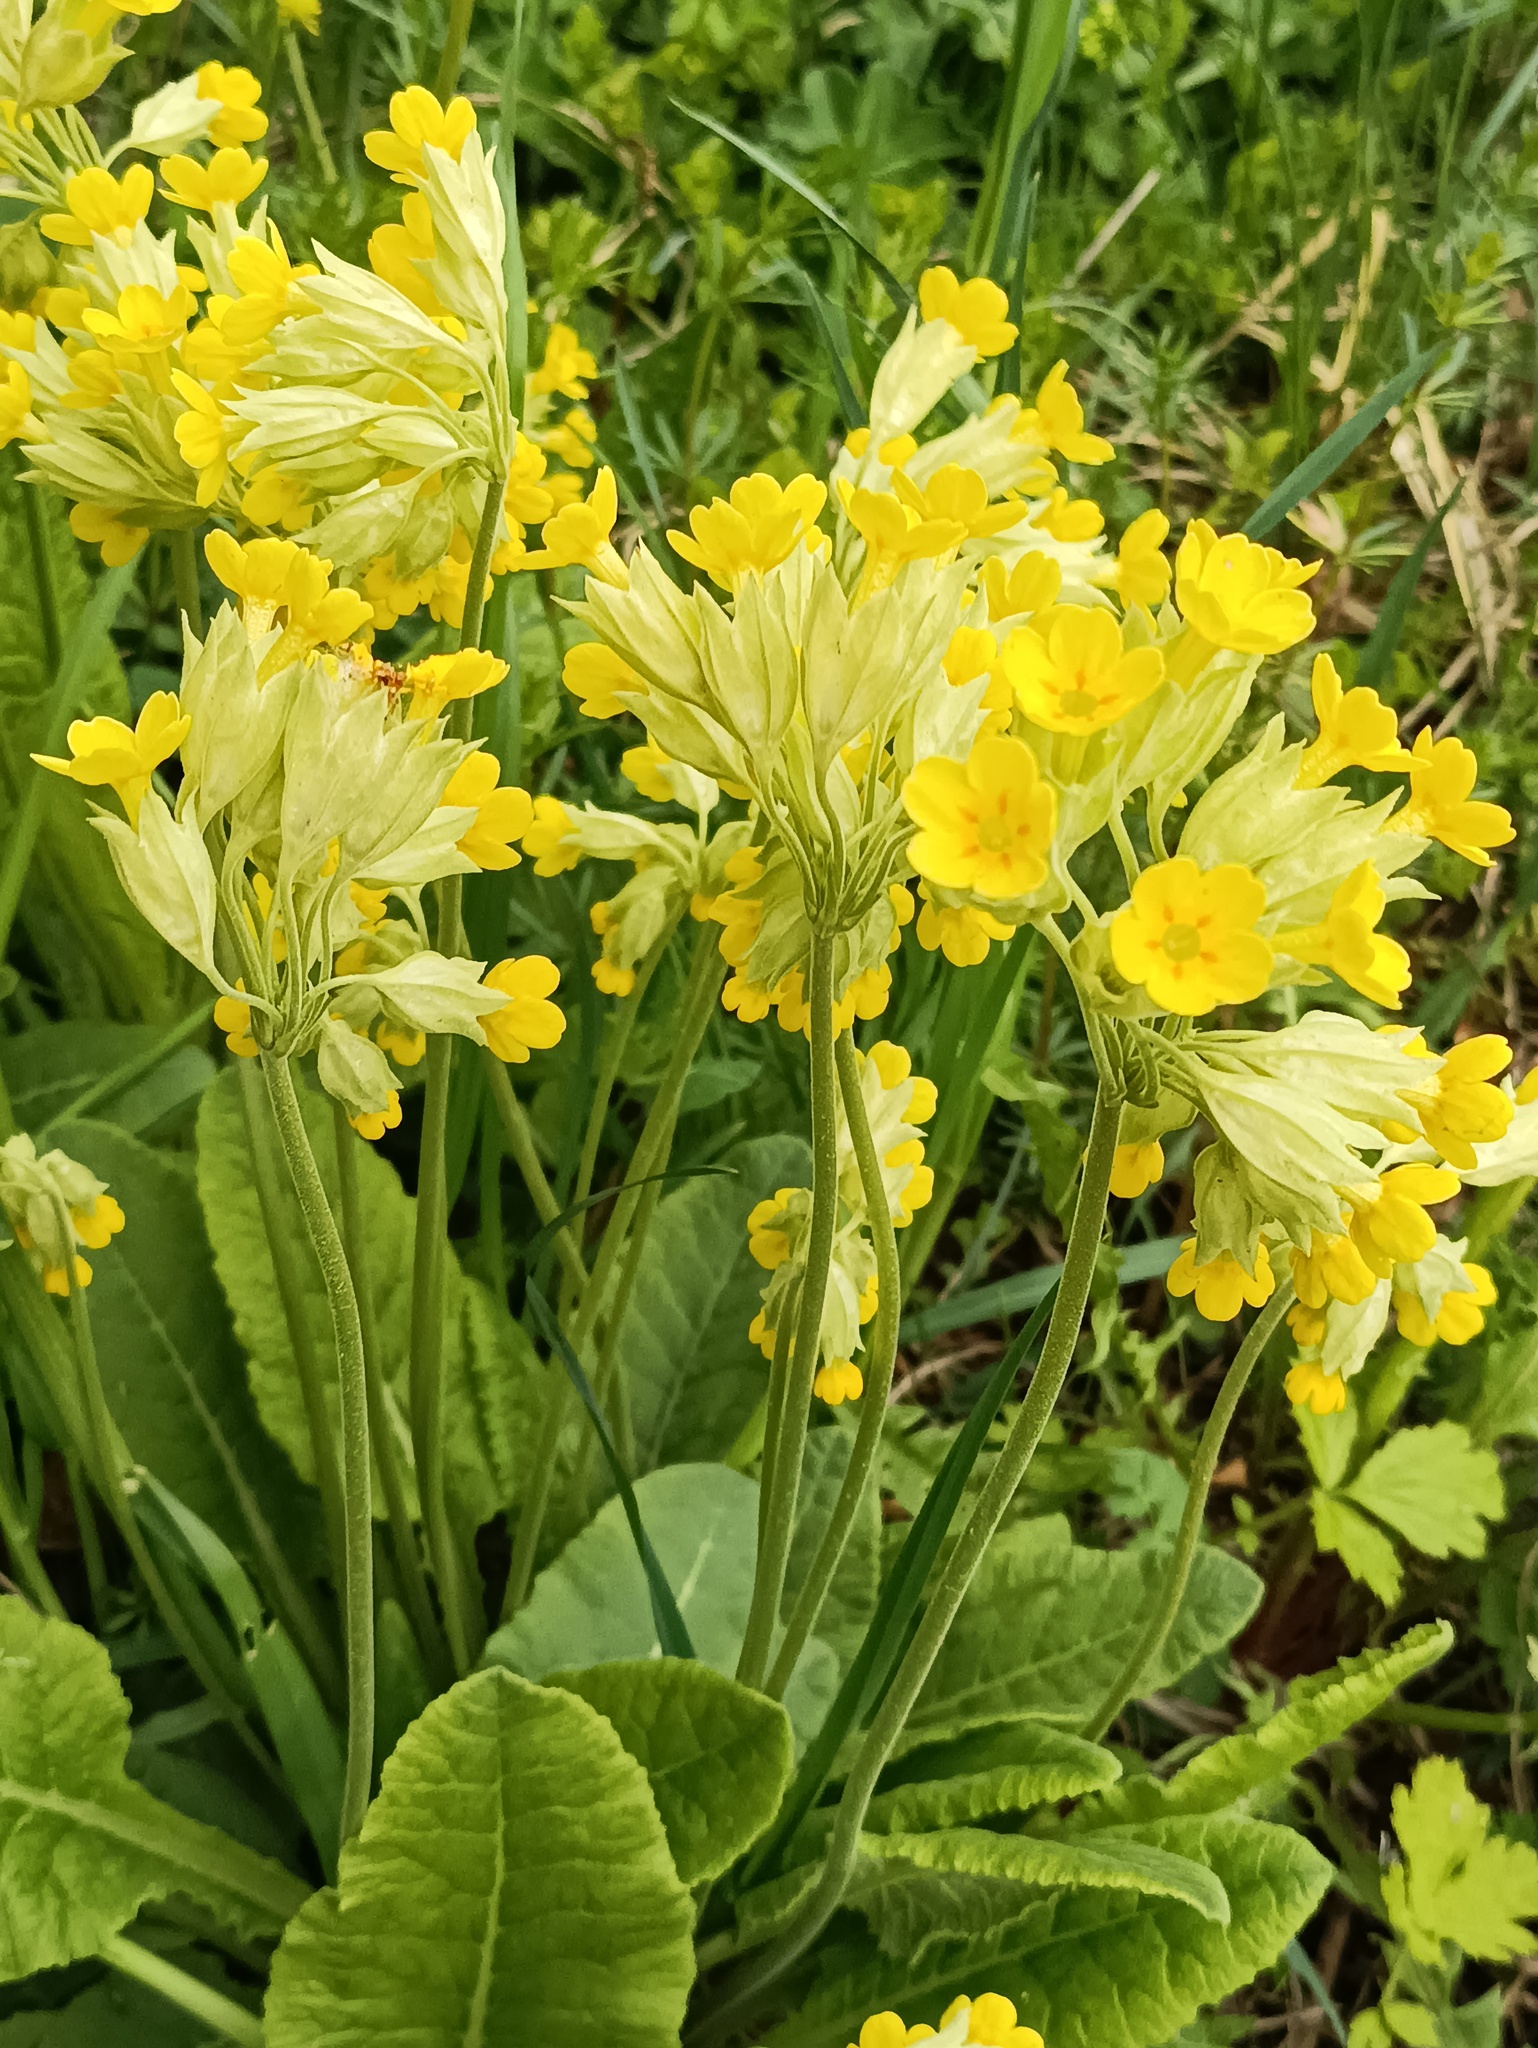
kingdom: Plantae
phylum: Tracheophyta
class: Magnoliopsida
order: Ericales
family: Primulaceae
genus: Primula
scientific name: Primula veris
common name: Cowslip
